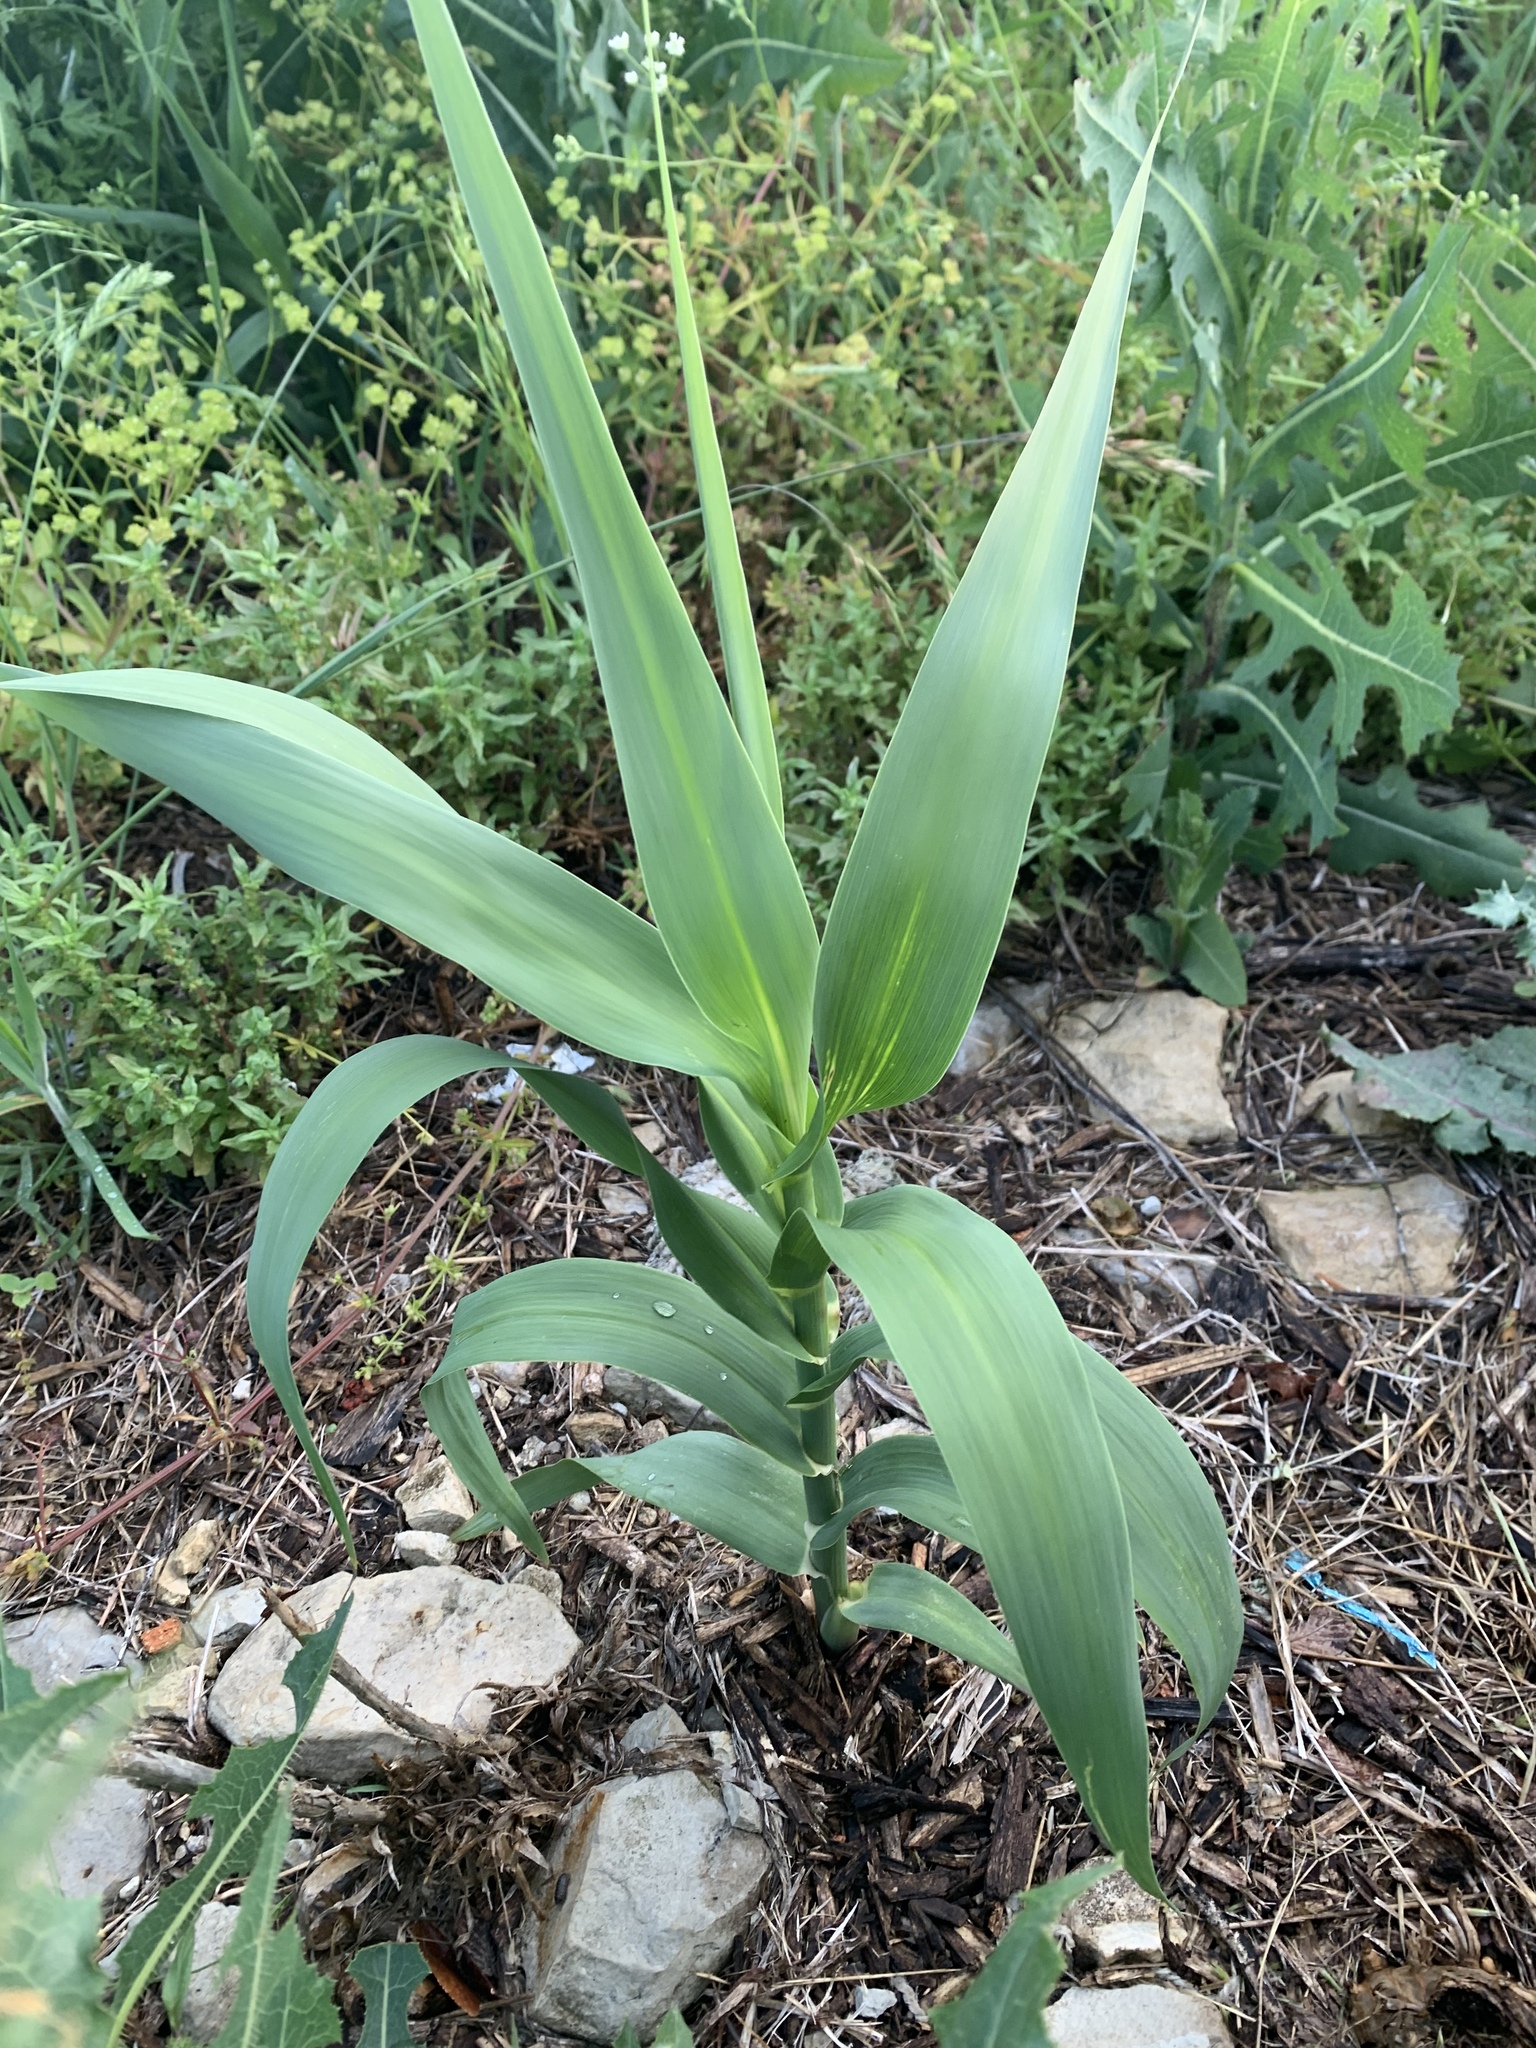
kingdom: Plantae
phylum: Tracheophyta
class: Liliopsida
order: Poales
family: Poaceae
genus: Arundo
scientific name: Arundo donax
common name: Giant reed
